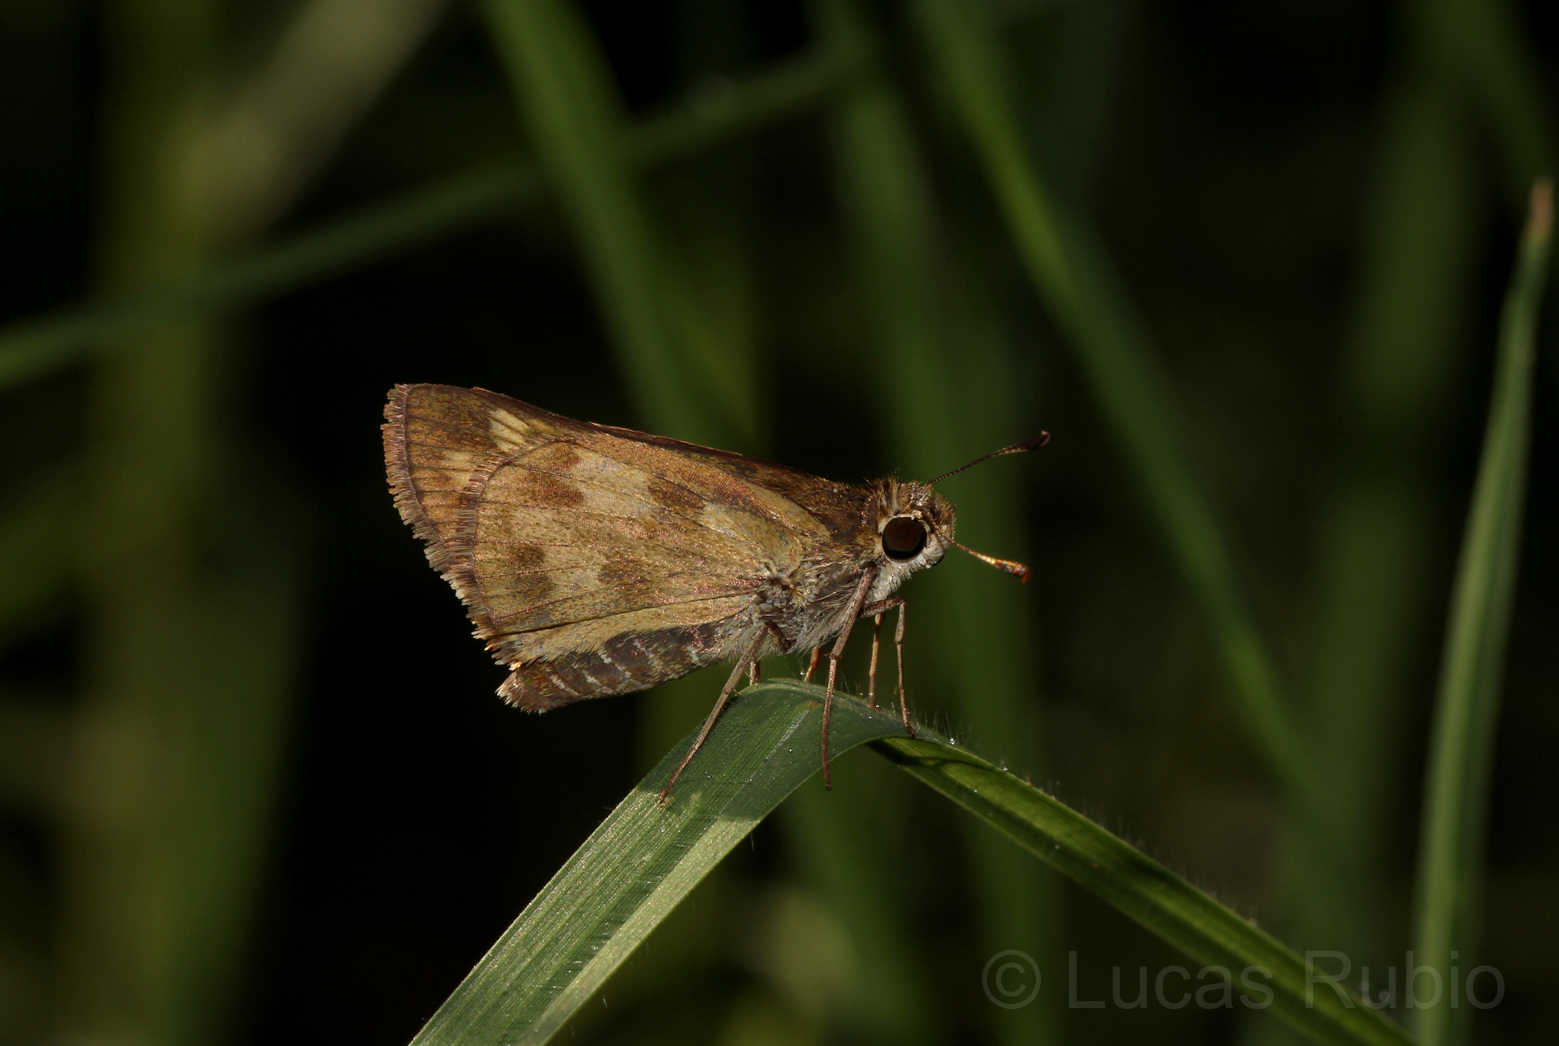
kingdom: Animalia
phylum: Arthropoda
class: Insecta
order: Lepidoptera
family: Hesperiidae
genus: Polites
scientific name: Polites vibex
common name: Whirlabout
